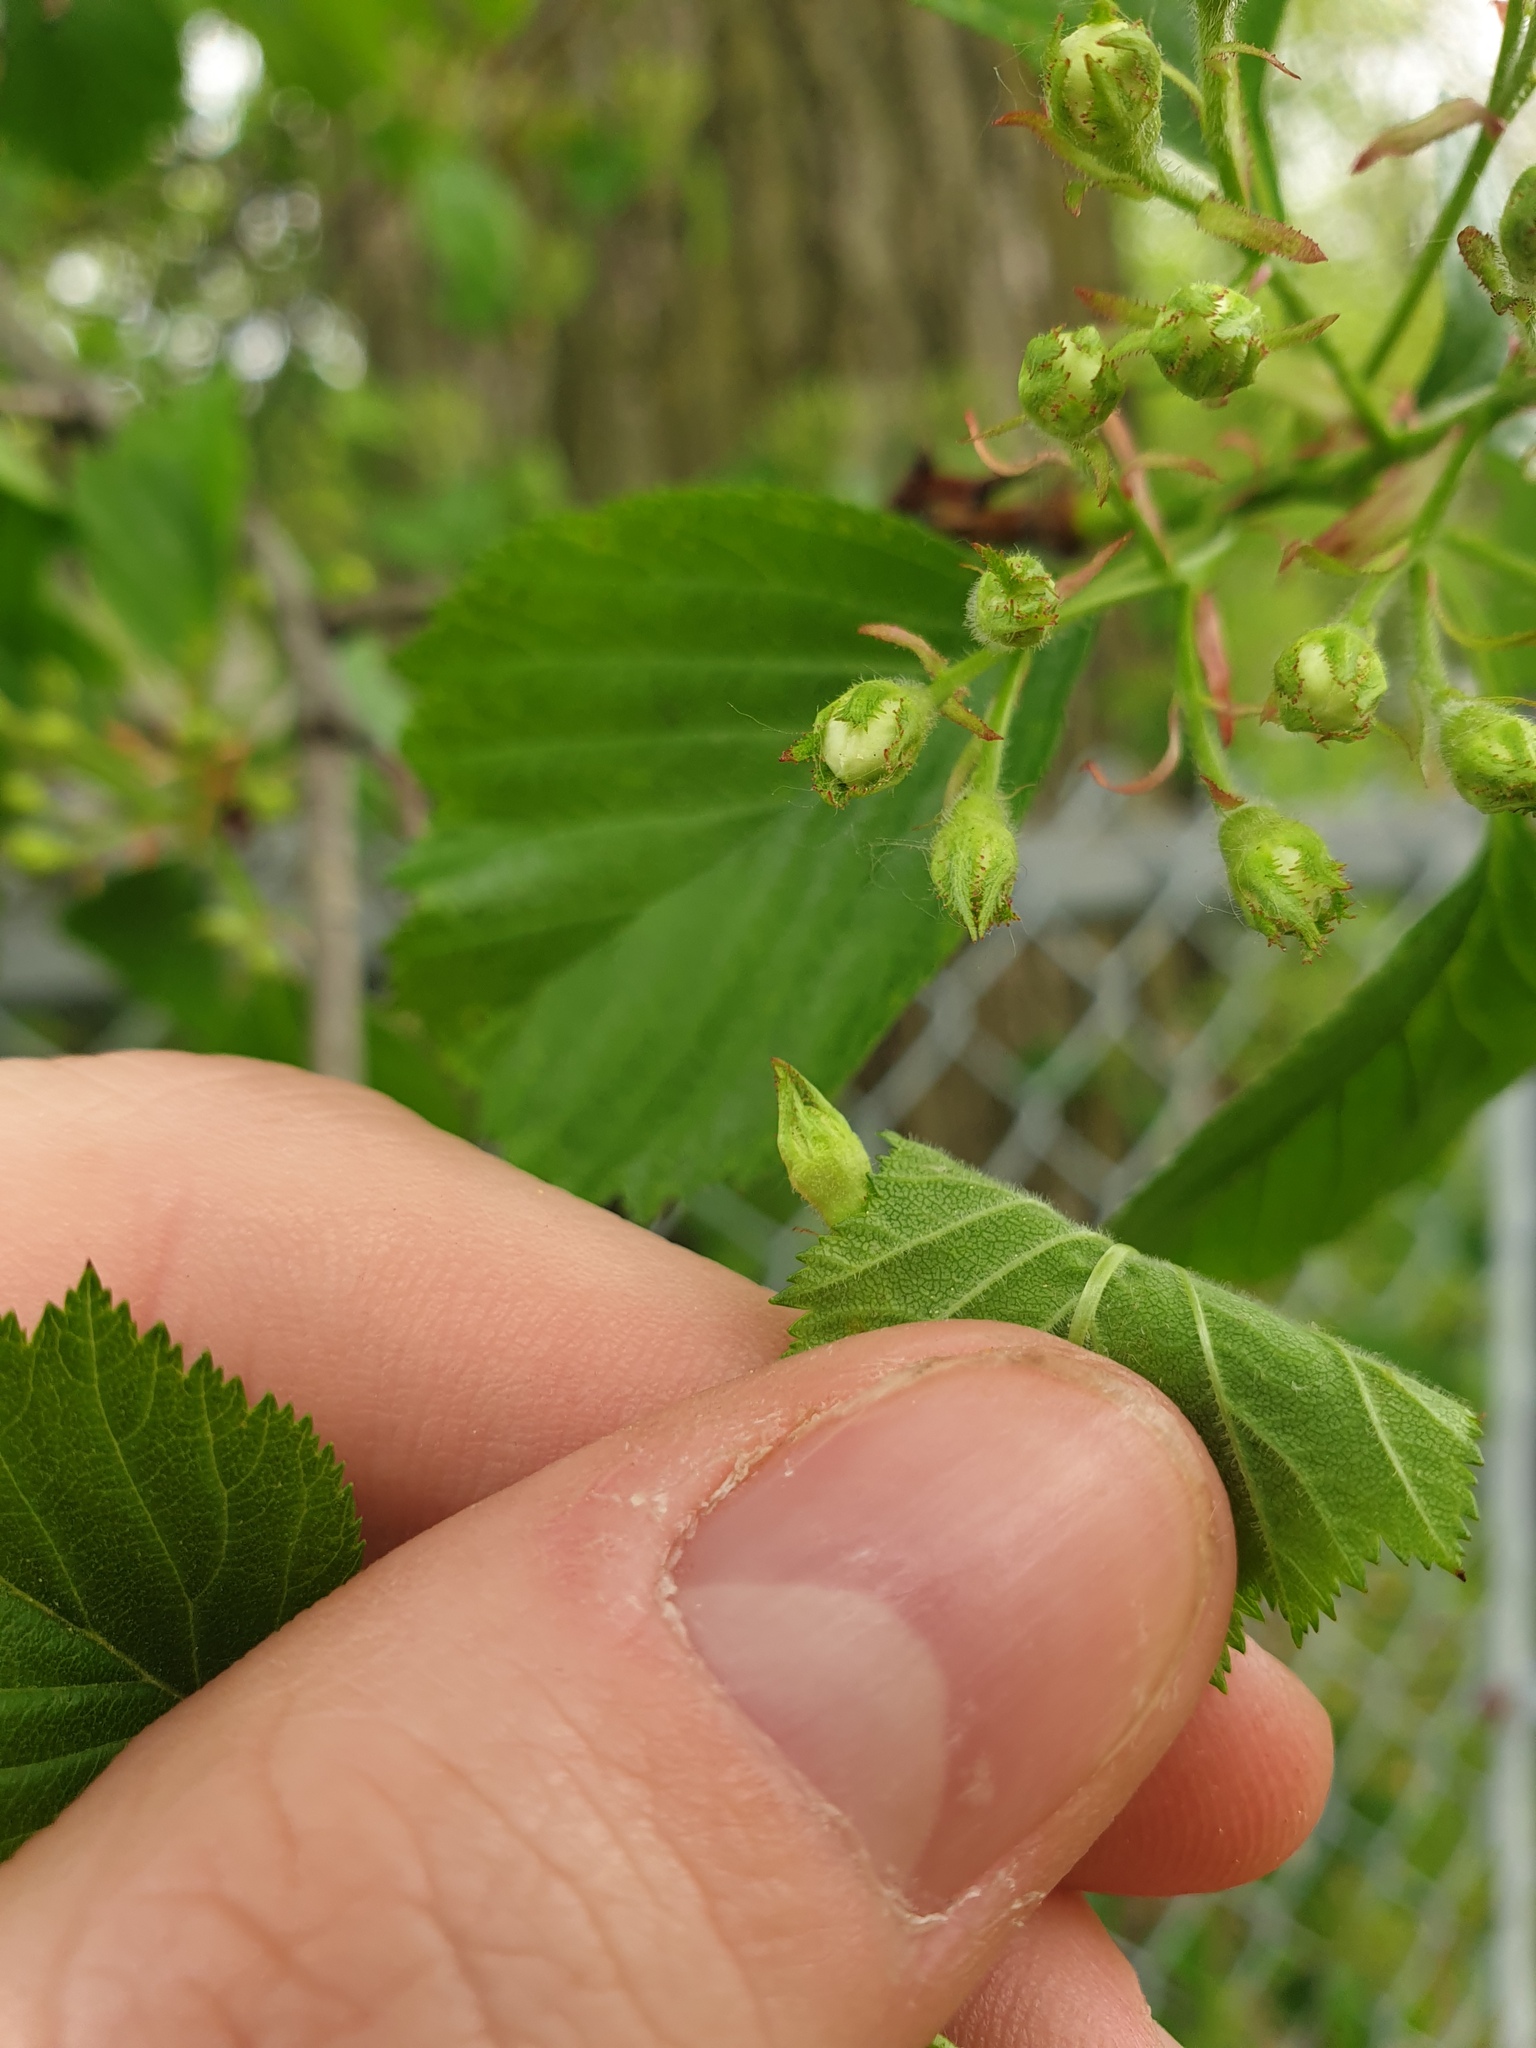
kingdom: Plantae
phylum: Tracheophyta
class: Magnoliopsida
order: Rosales
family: Rosaceae
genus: Crataegus
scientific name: Crataegus succulenta
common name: Fleshy hawthorn
